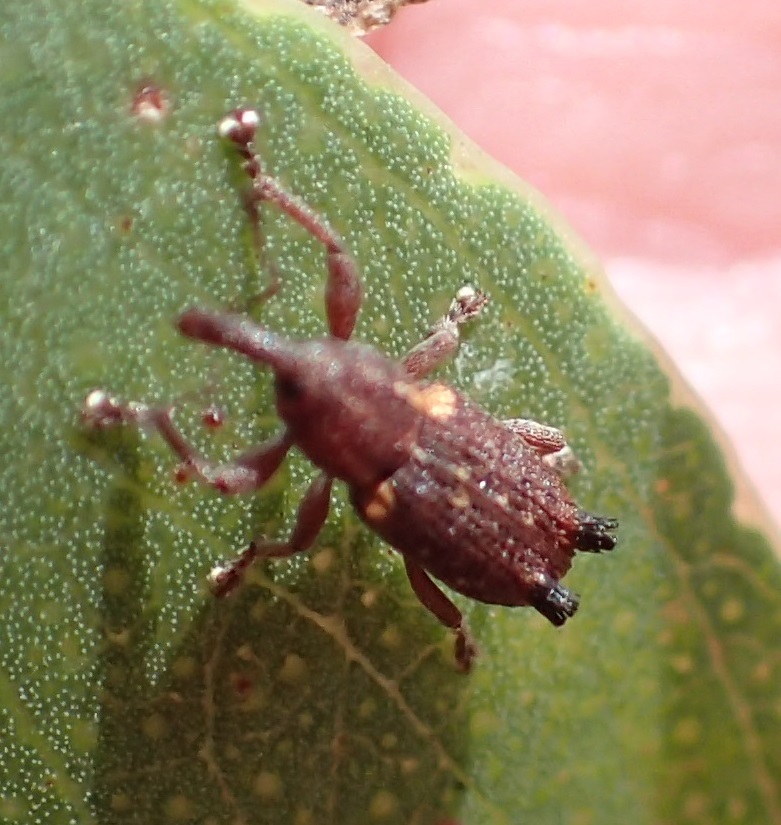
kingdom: Animalia
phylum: Arthropoda
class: Insecta
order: Coleoptera
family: Curculionidae
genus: Encosmia
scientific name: Encosmia cornuta
